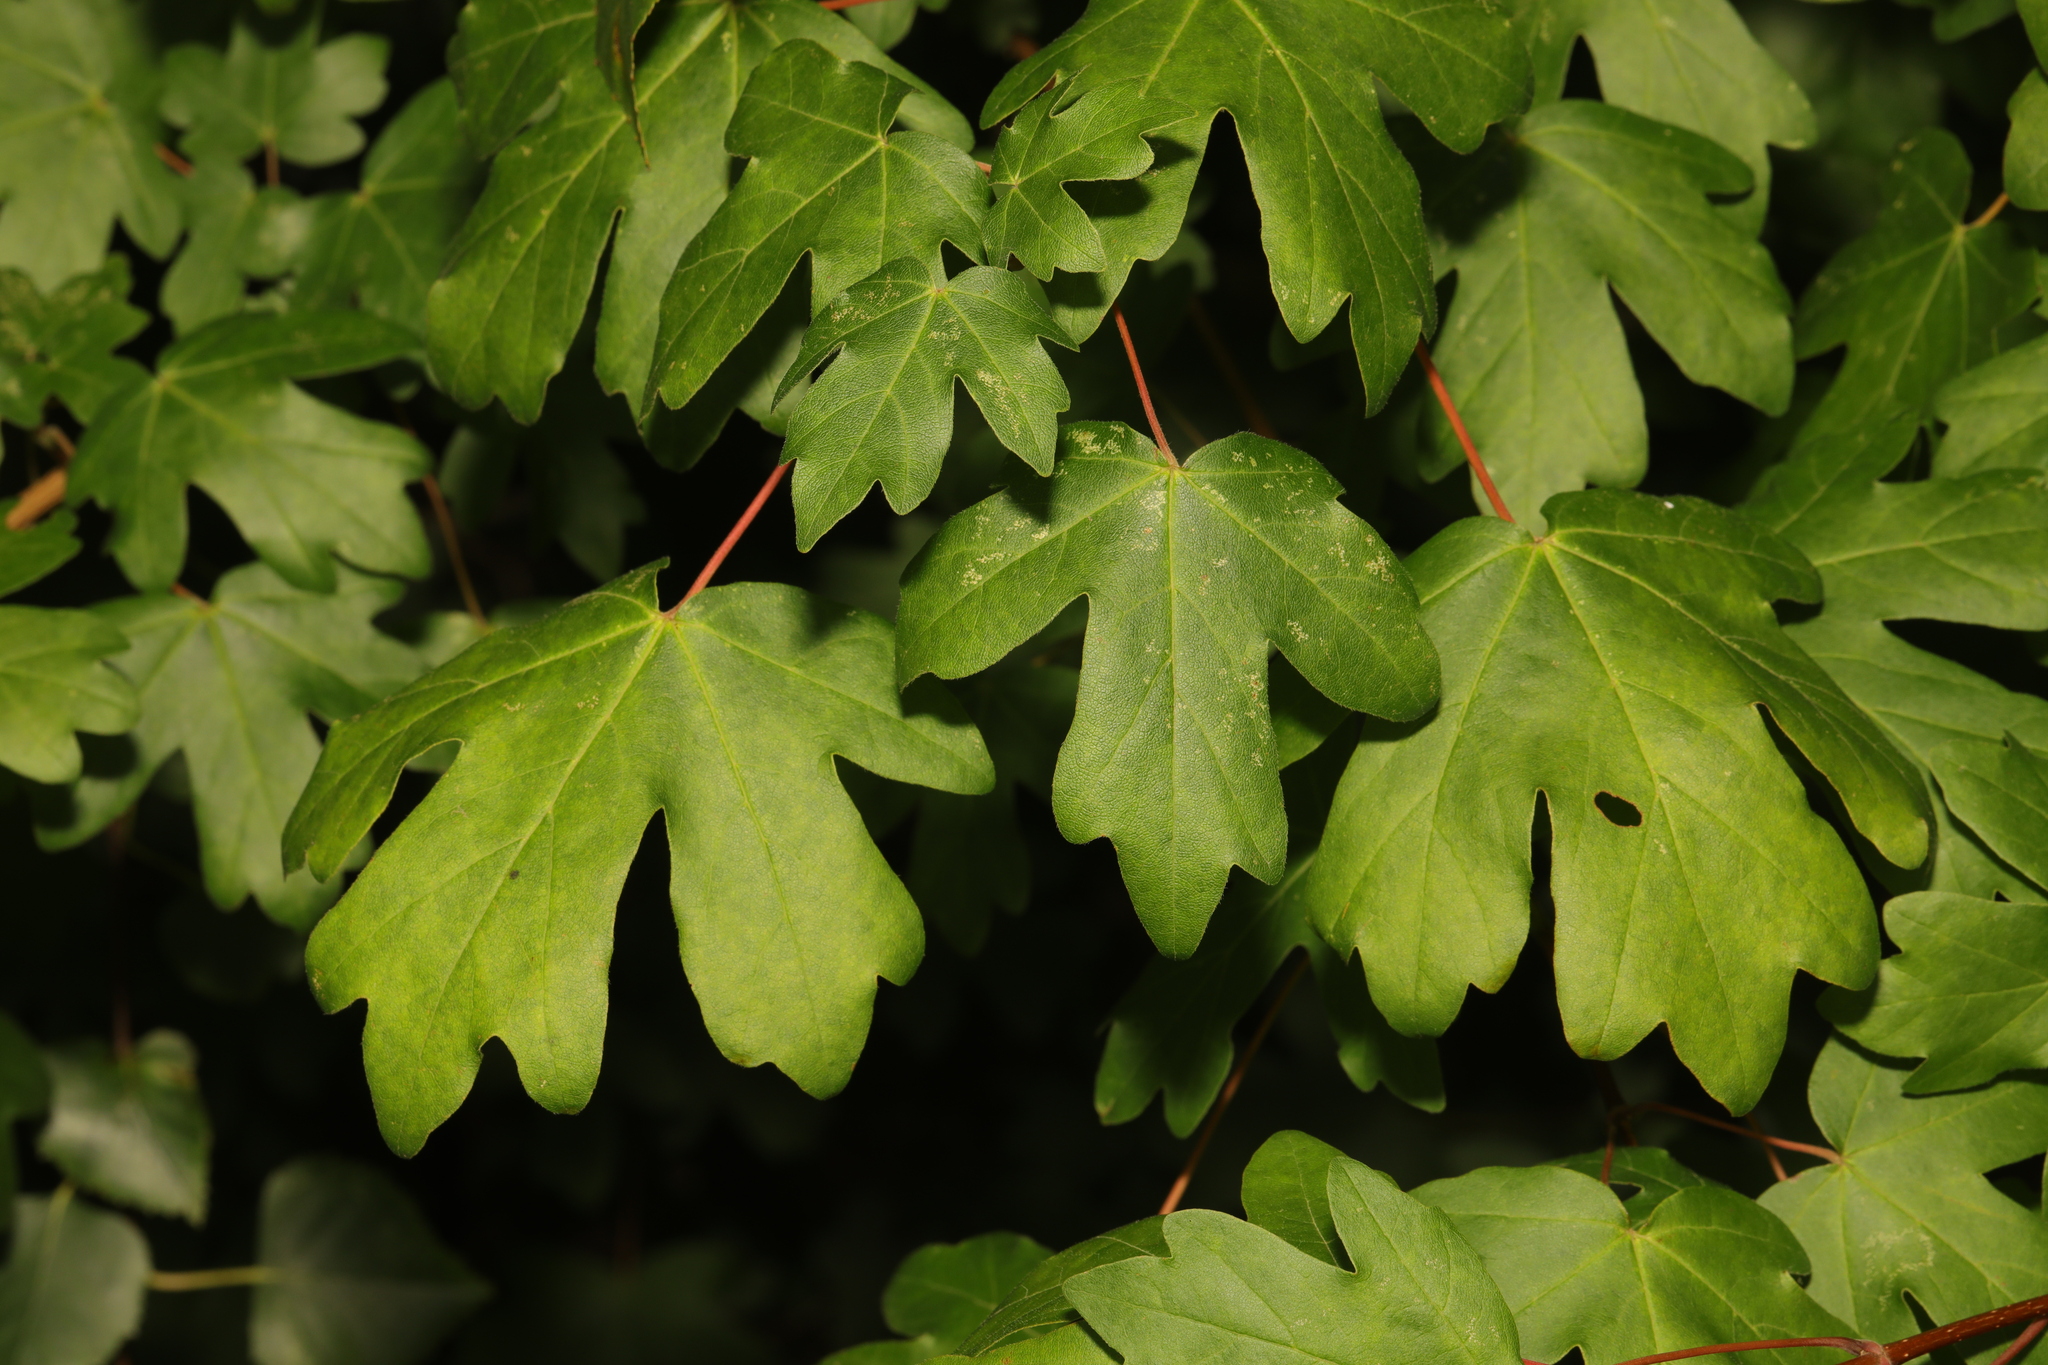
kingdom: Plantae
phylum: Tracheophyta
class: Magnoliopsida
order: Sapindales
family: Sapindaceae
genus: Acer
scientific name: Acer campestre
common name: Field maple
